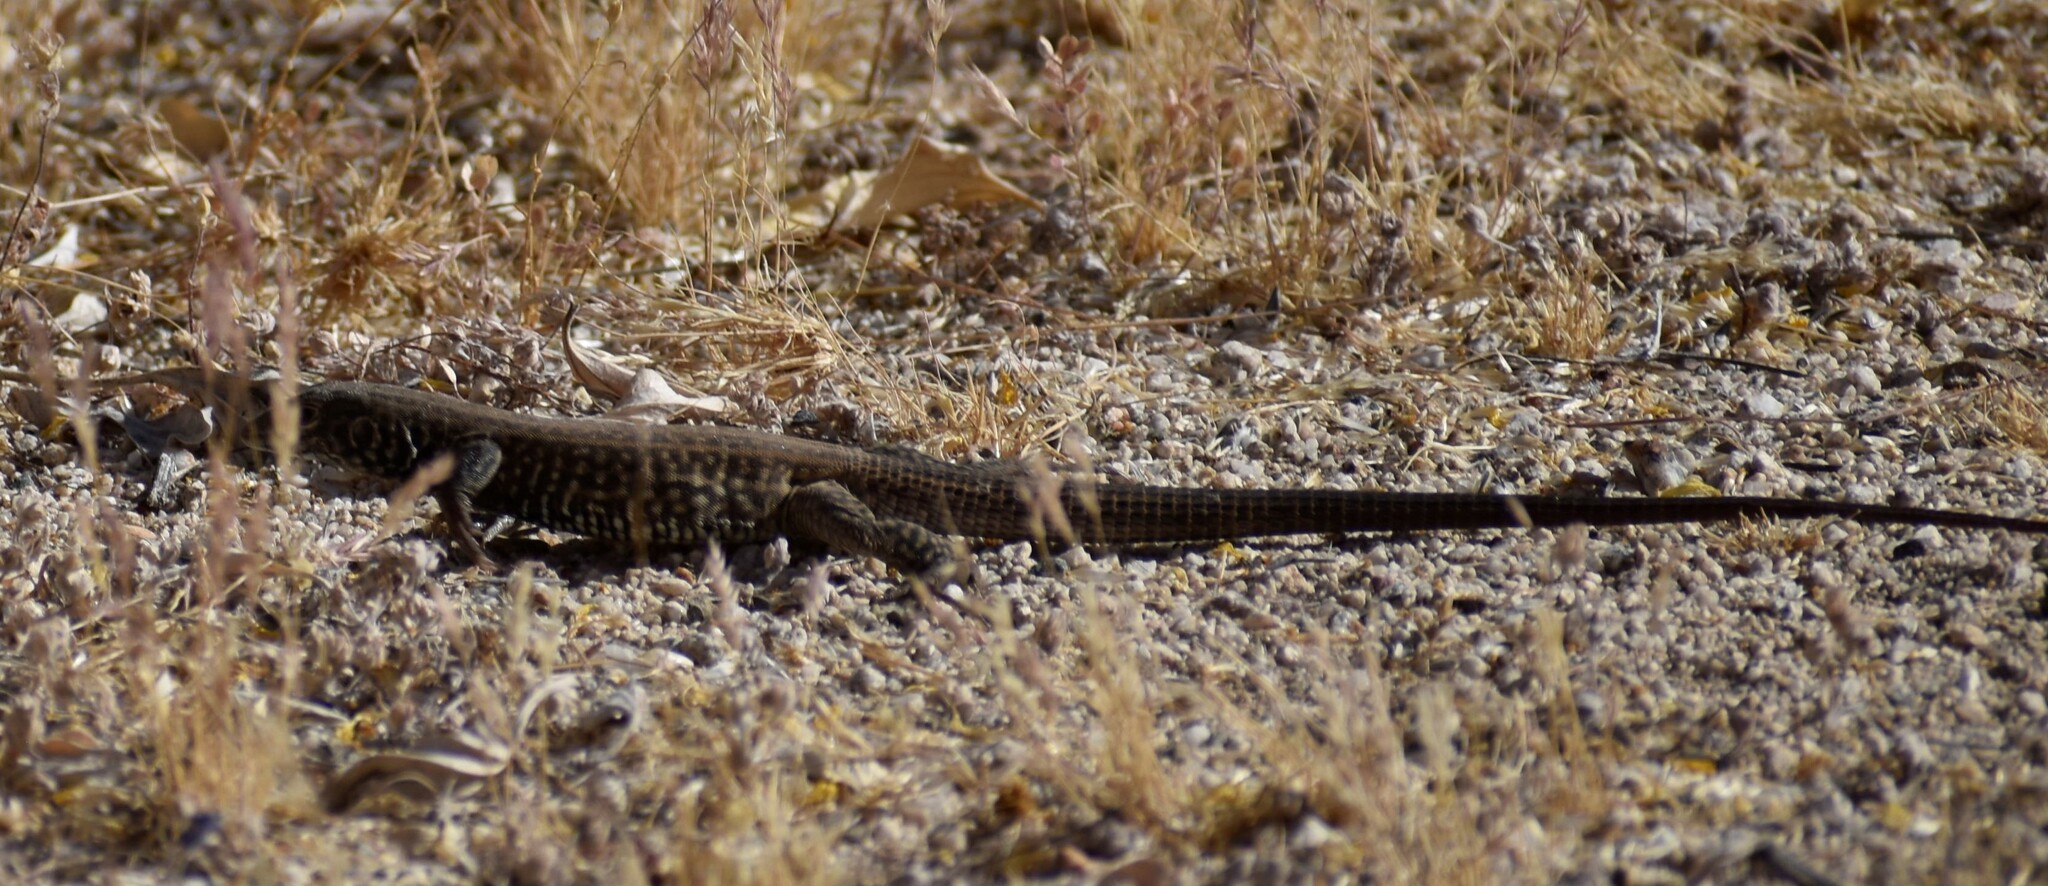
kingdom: Animalia
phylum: Chordata
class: Squamata
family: Teiidae
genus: Aspidoscelis
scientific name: Aspidoscelis tigris
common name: Tiger whiptail
